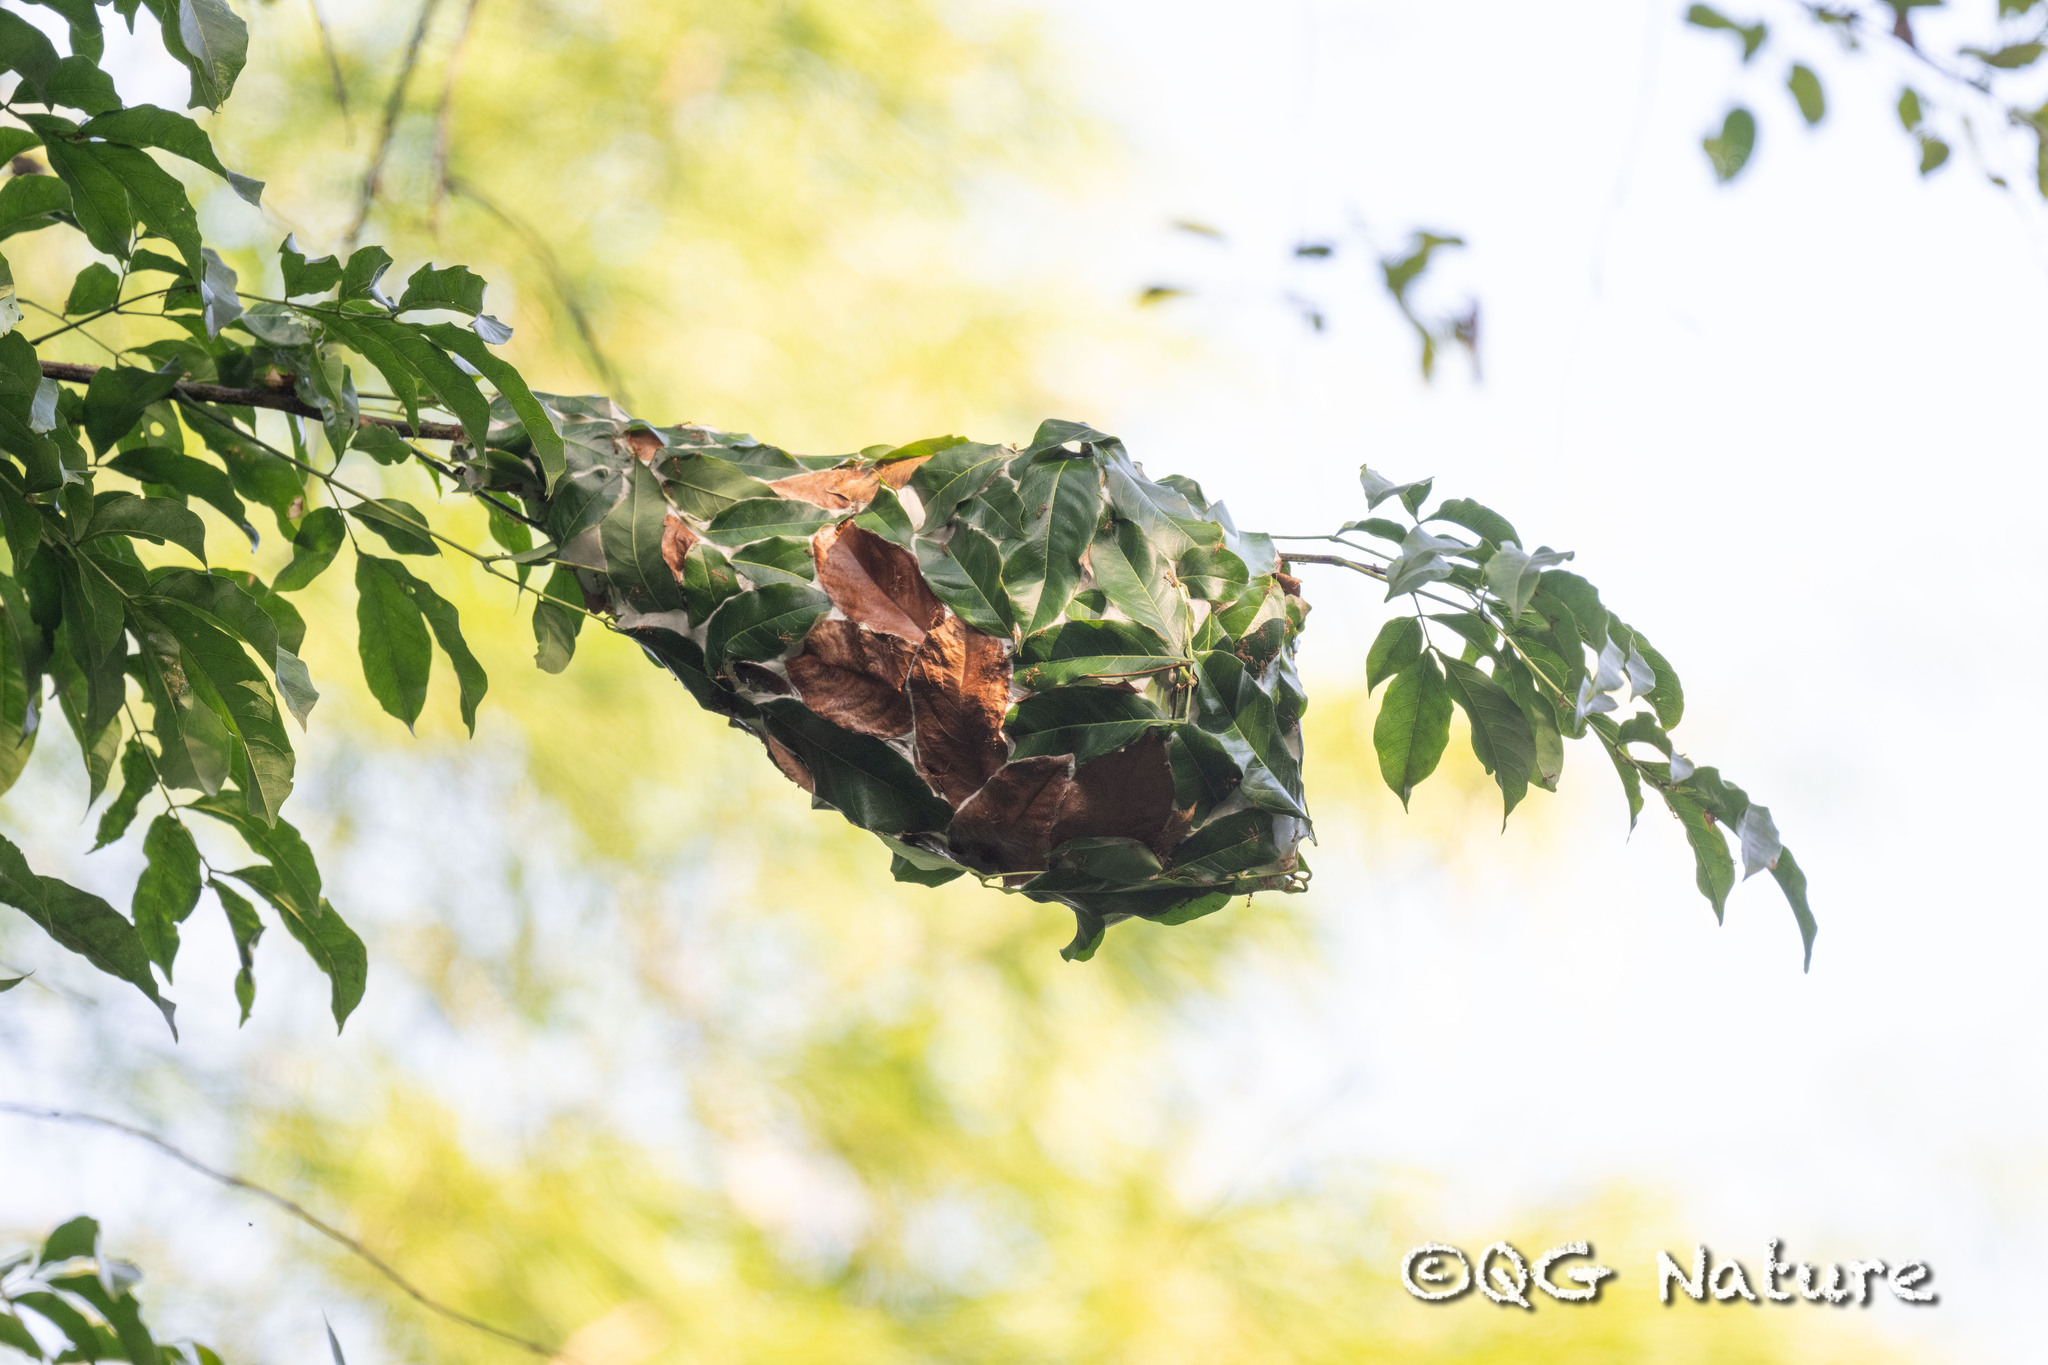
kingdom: Animalia
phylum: Arthropoda
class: Insecta
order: Hymenoptera
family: Formicidae
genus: Oecophylla
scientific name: Oecophylla smaragdina
